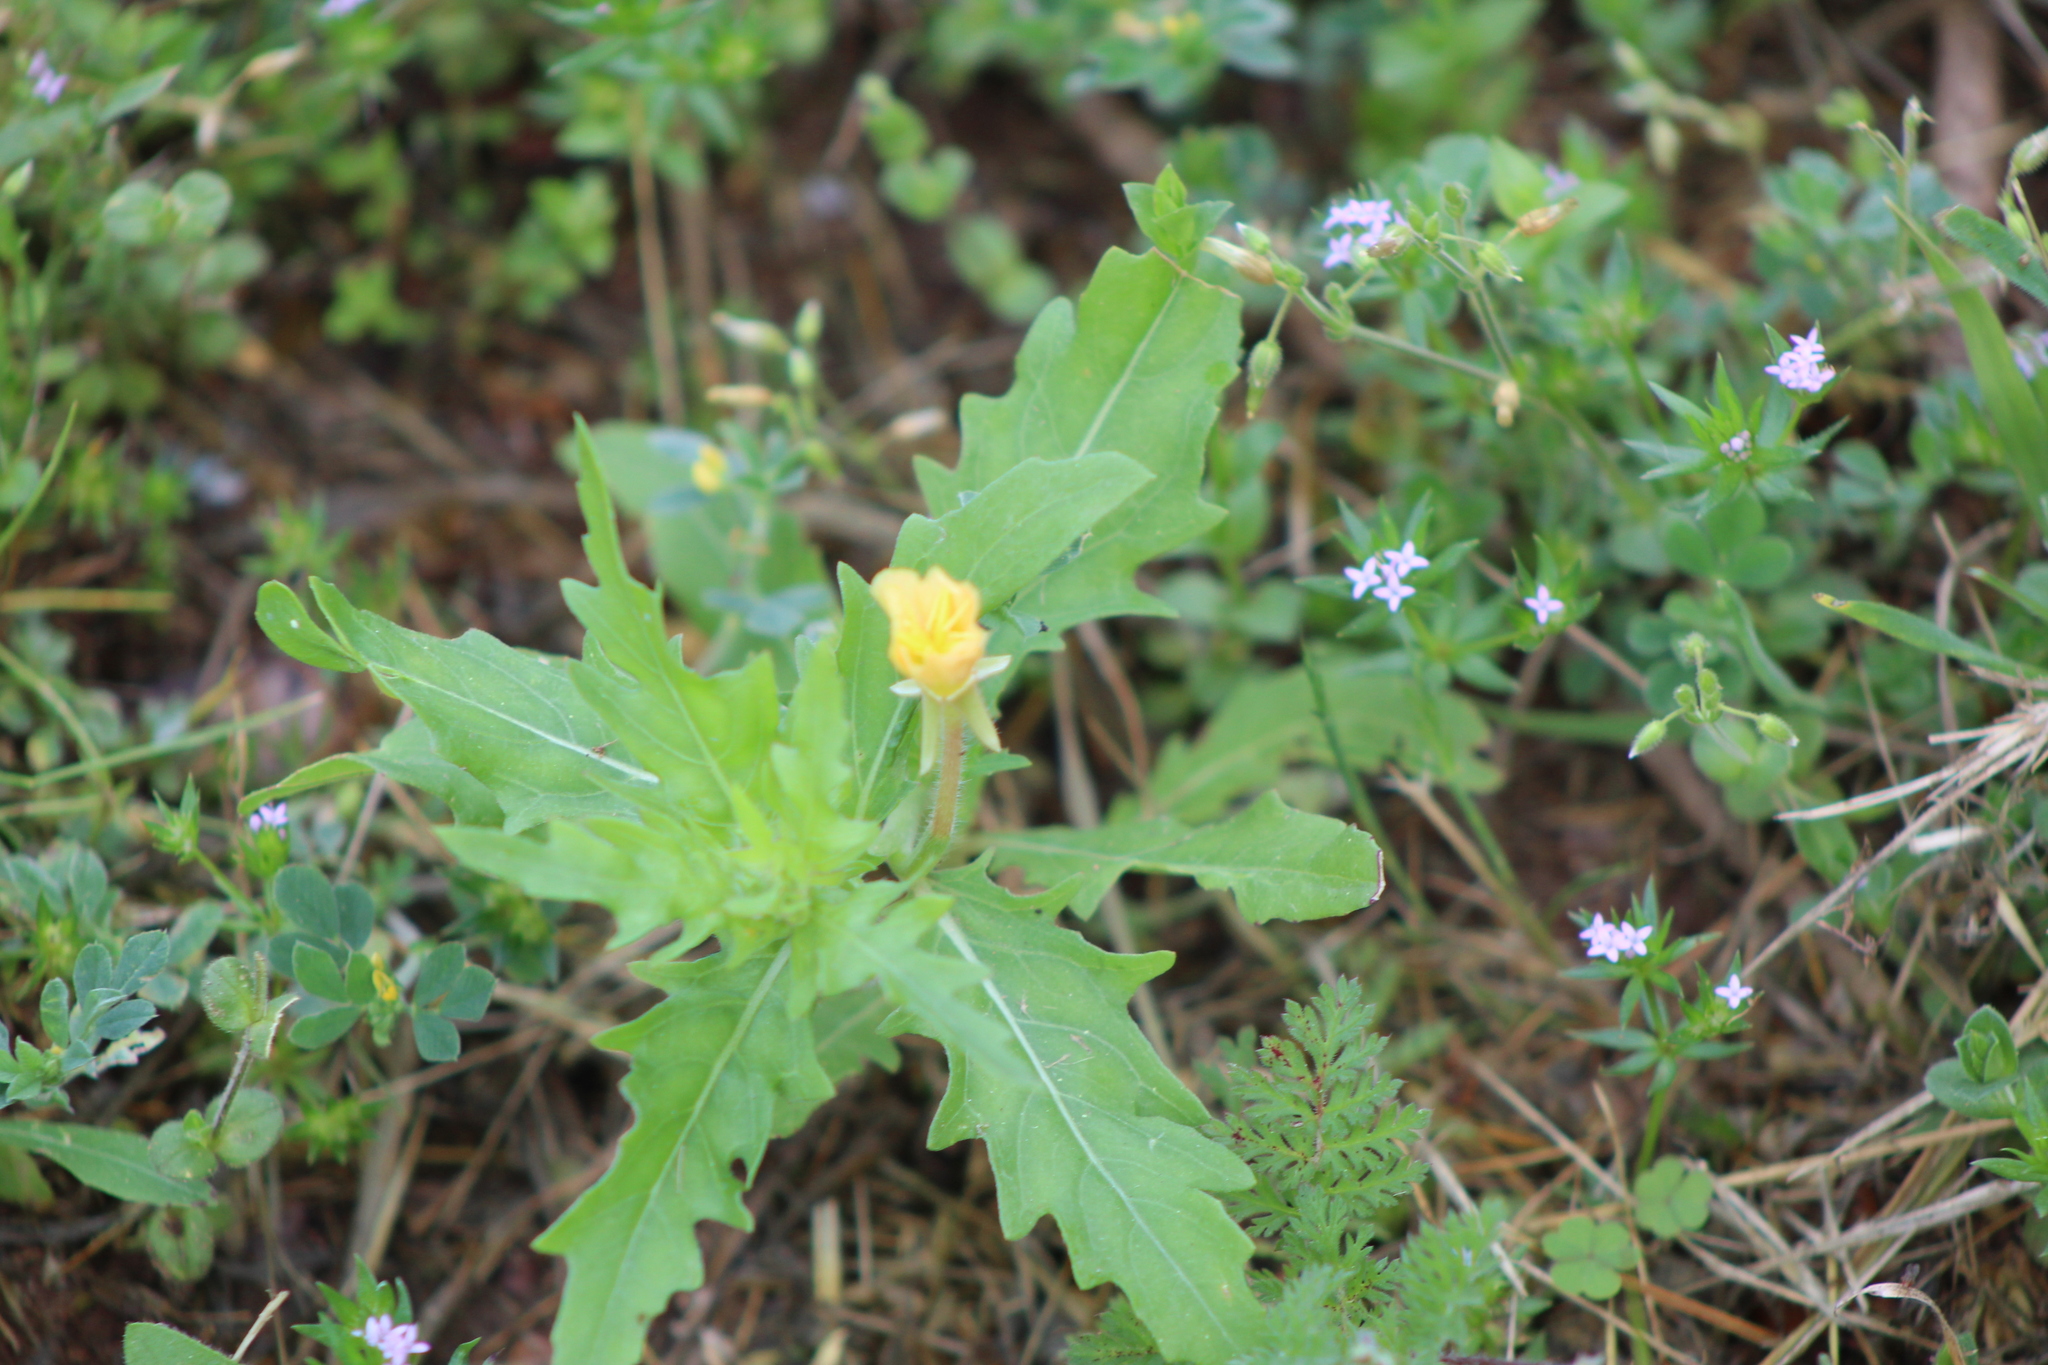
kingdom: Plantae
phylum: Tracheophyta
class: Magnoliopsida
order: Myrtales
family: Onagraceae
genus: Oenothera
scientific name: Oenothera laciniata
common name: Cut-leaved evening-primrose
